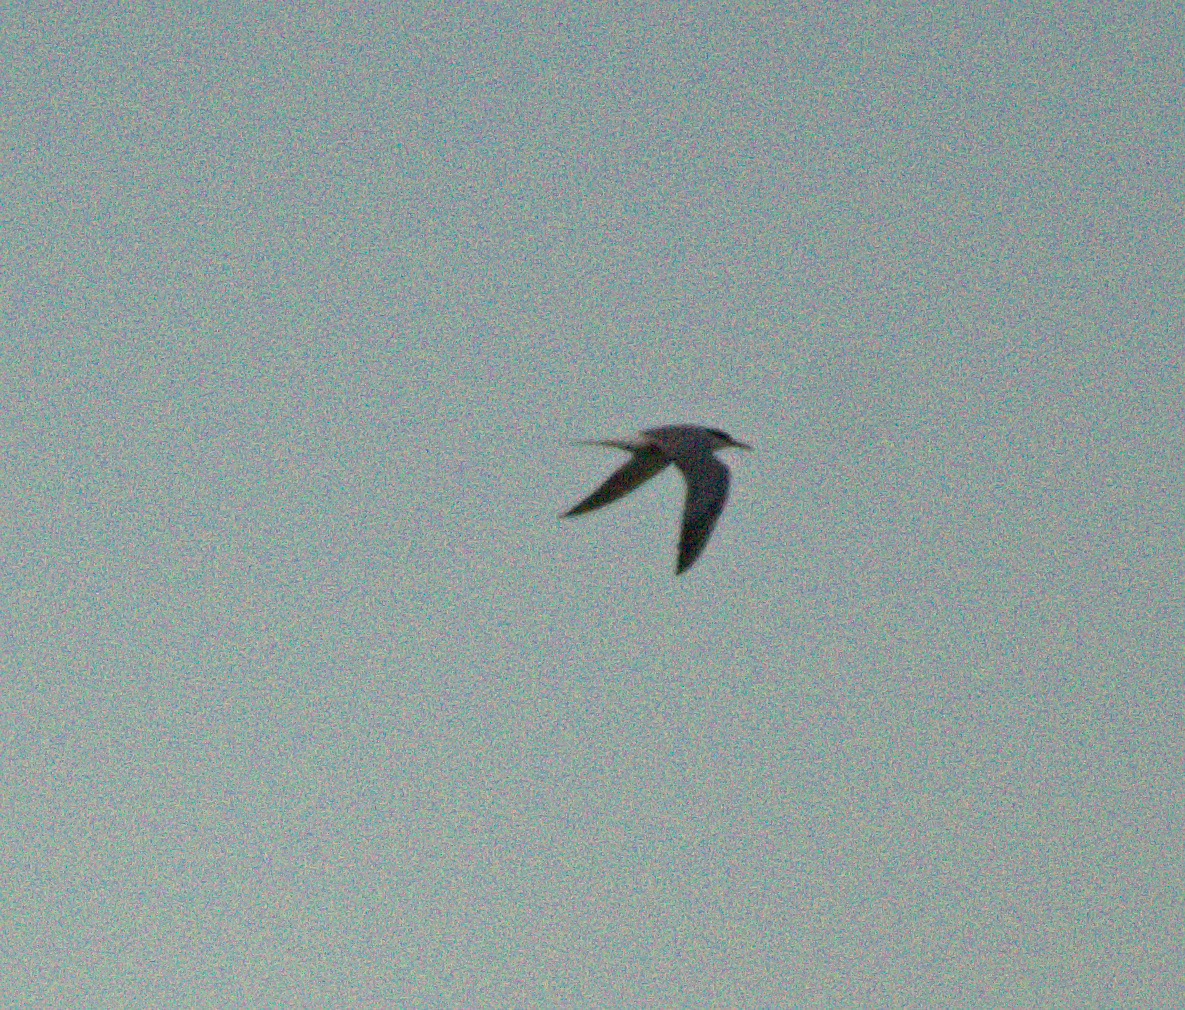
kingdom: Animalia
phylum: Chordata
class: Aves
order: Charadriiformes
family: Laridae
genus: Sterna
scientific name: Sterna hirundo
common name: Common tern
